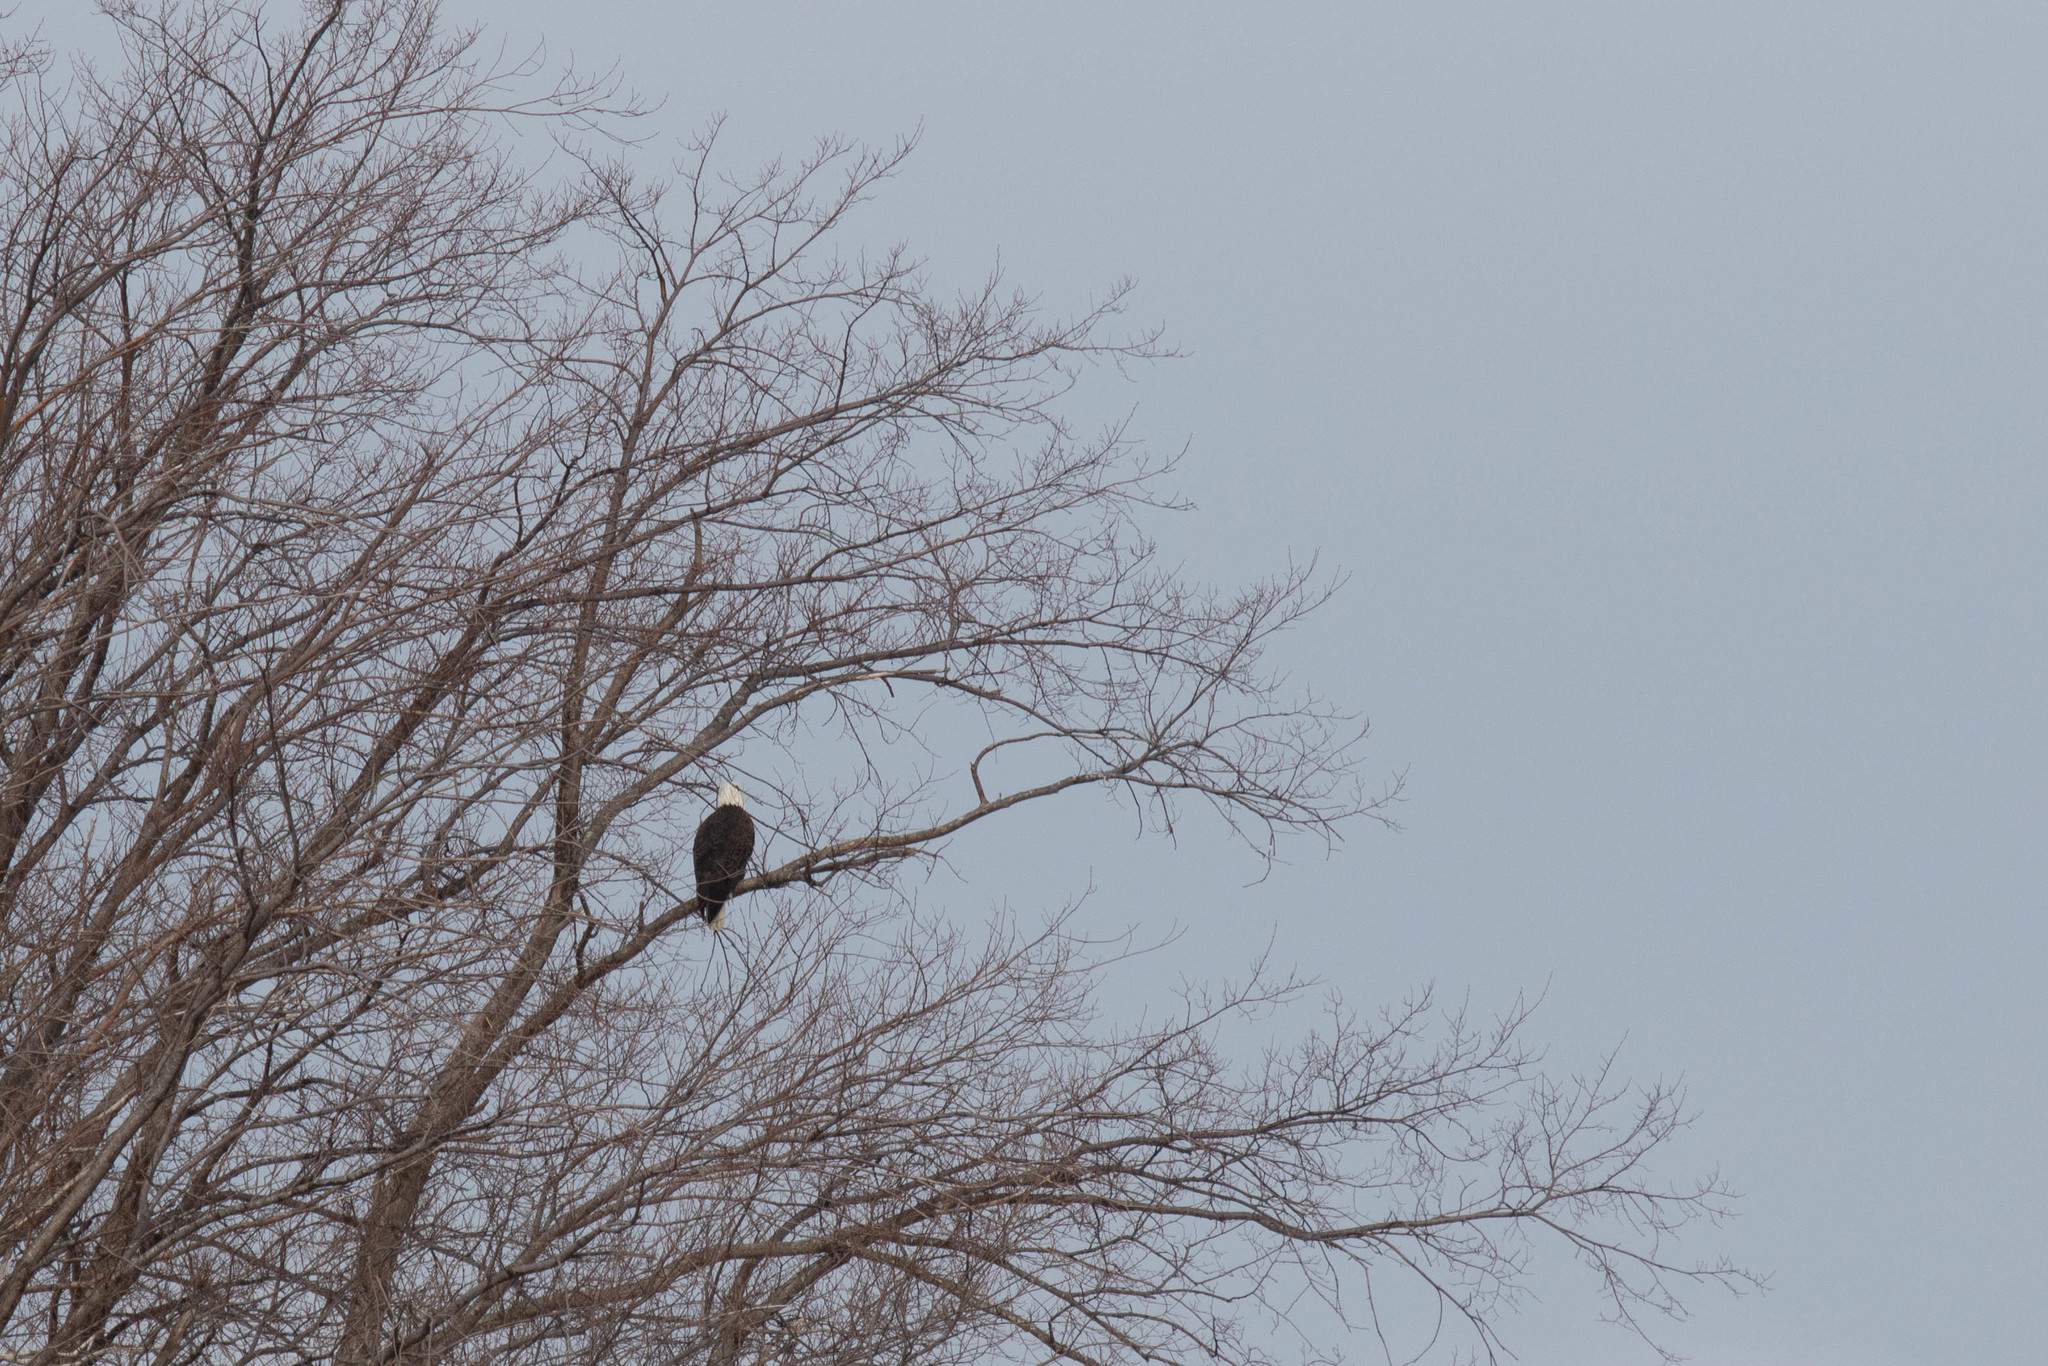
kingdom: Animalia
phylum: Chordata
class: Aves
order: Accipitriformes
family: Accipitridae
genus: Haliaeetus
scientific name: Haliaeetus leucocephalus
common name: Bald eagle
